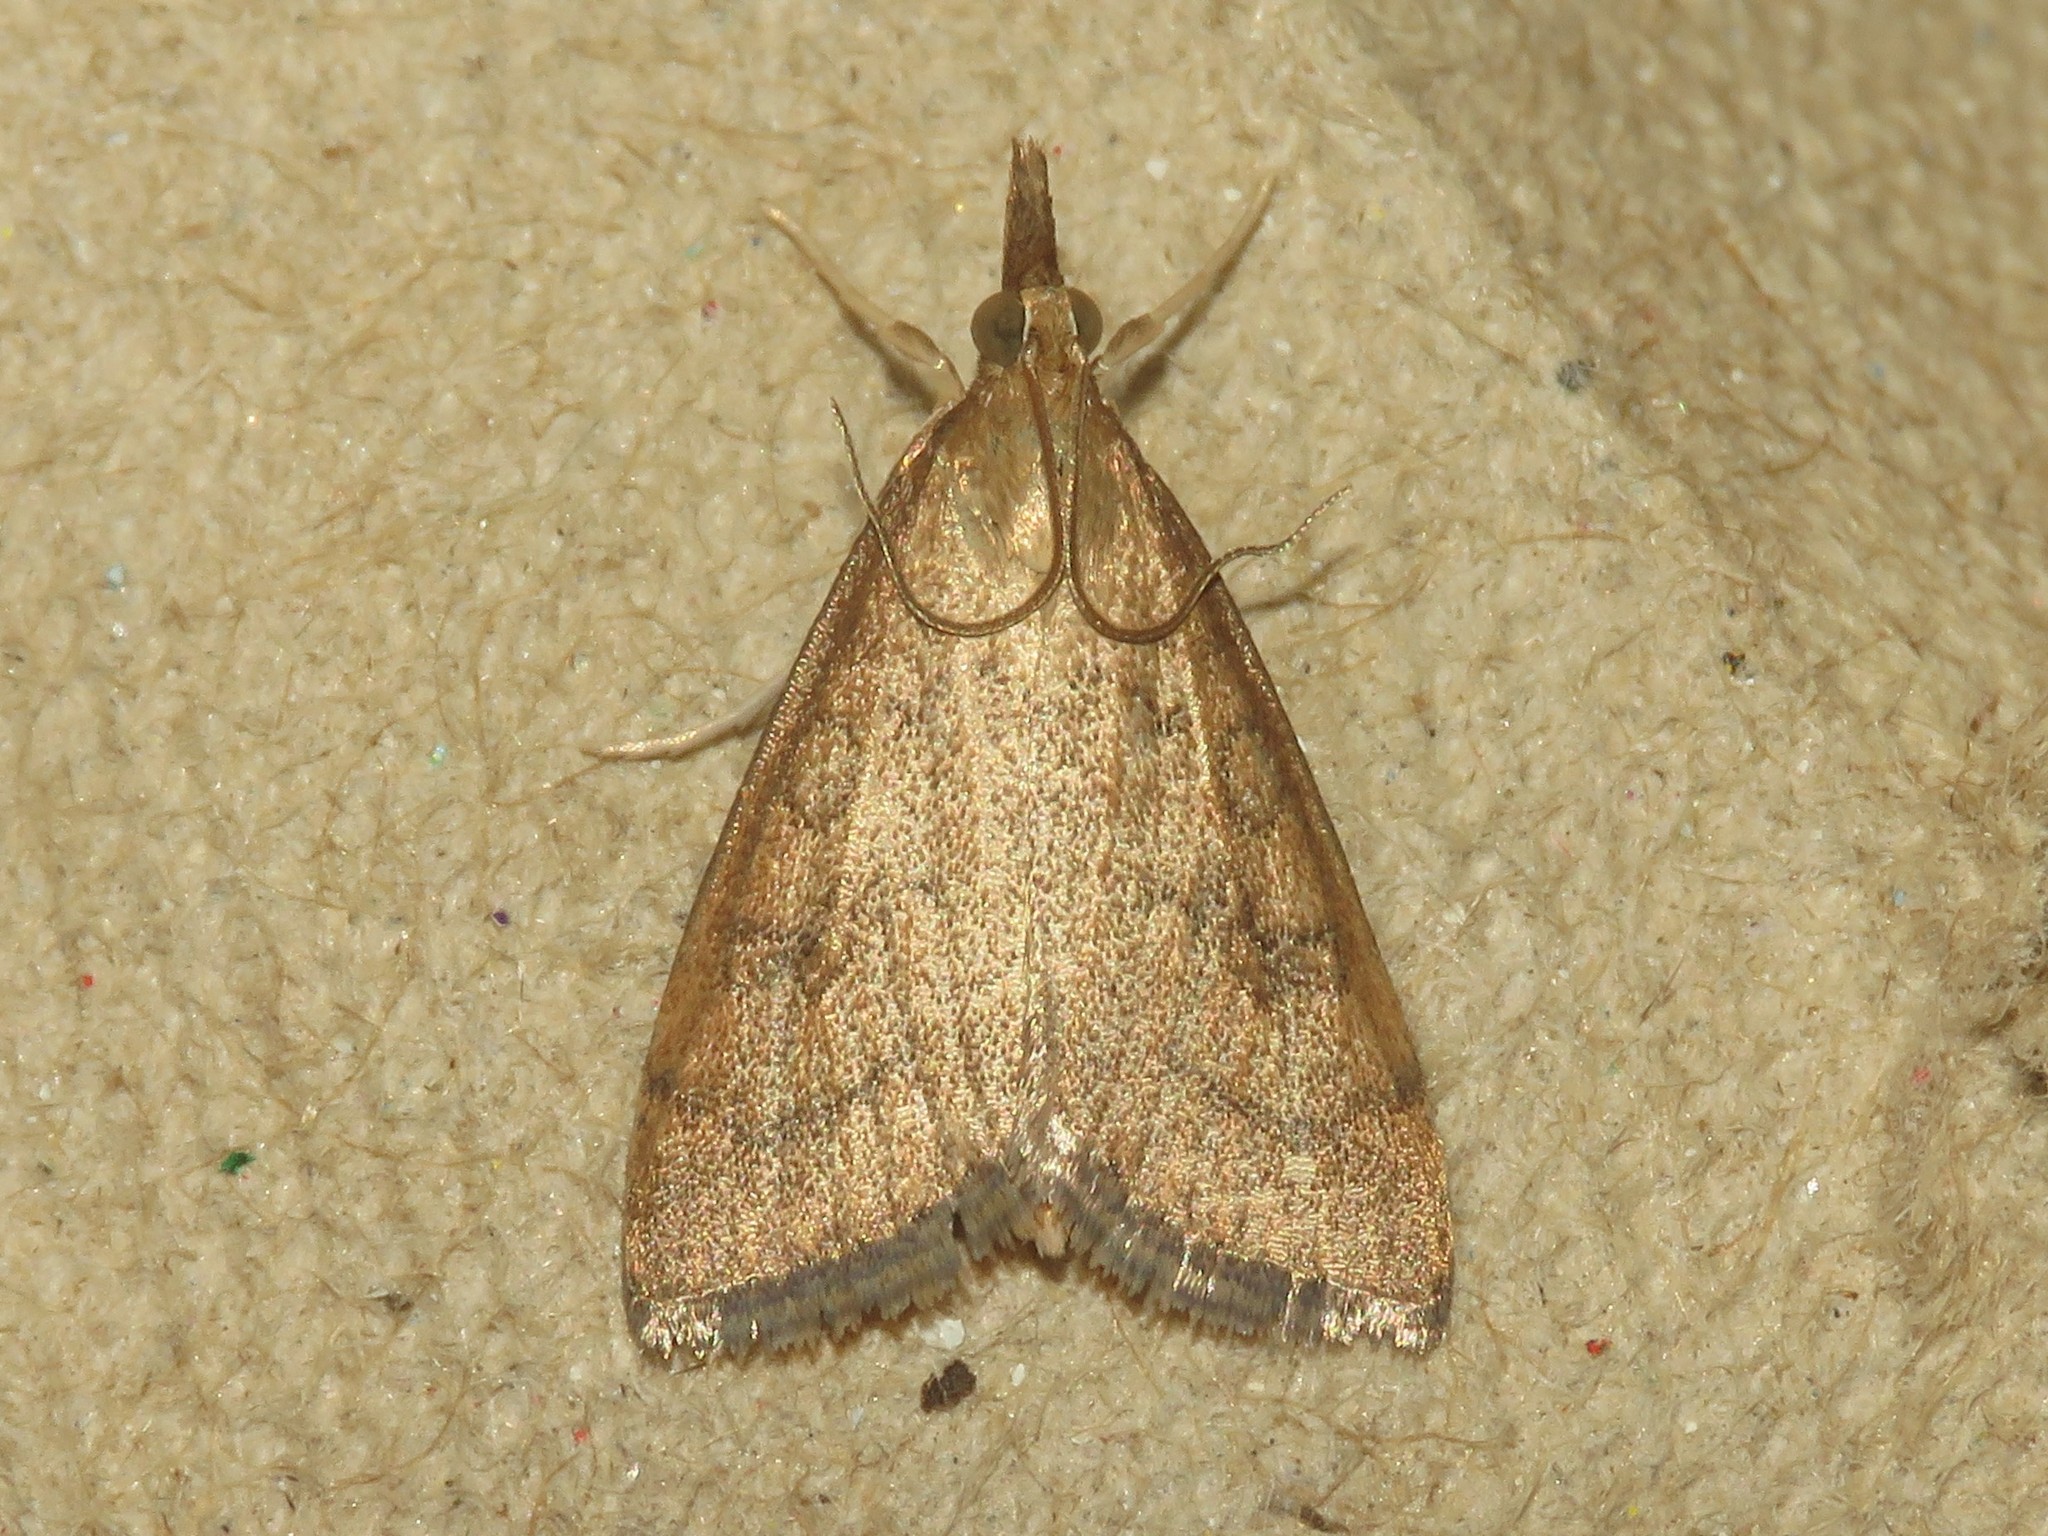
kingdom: Animalia
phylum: Arthropoda
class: Insecta
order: Lepidoptera
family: Crambidae
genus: Udea
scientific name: Udea rubigalis
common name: Celery leaftier moth
